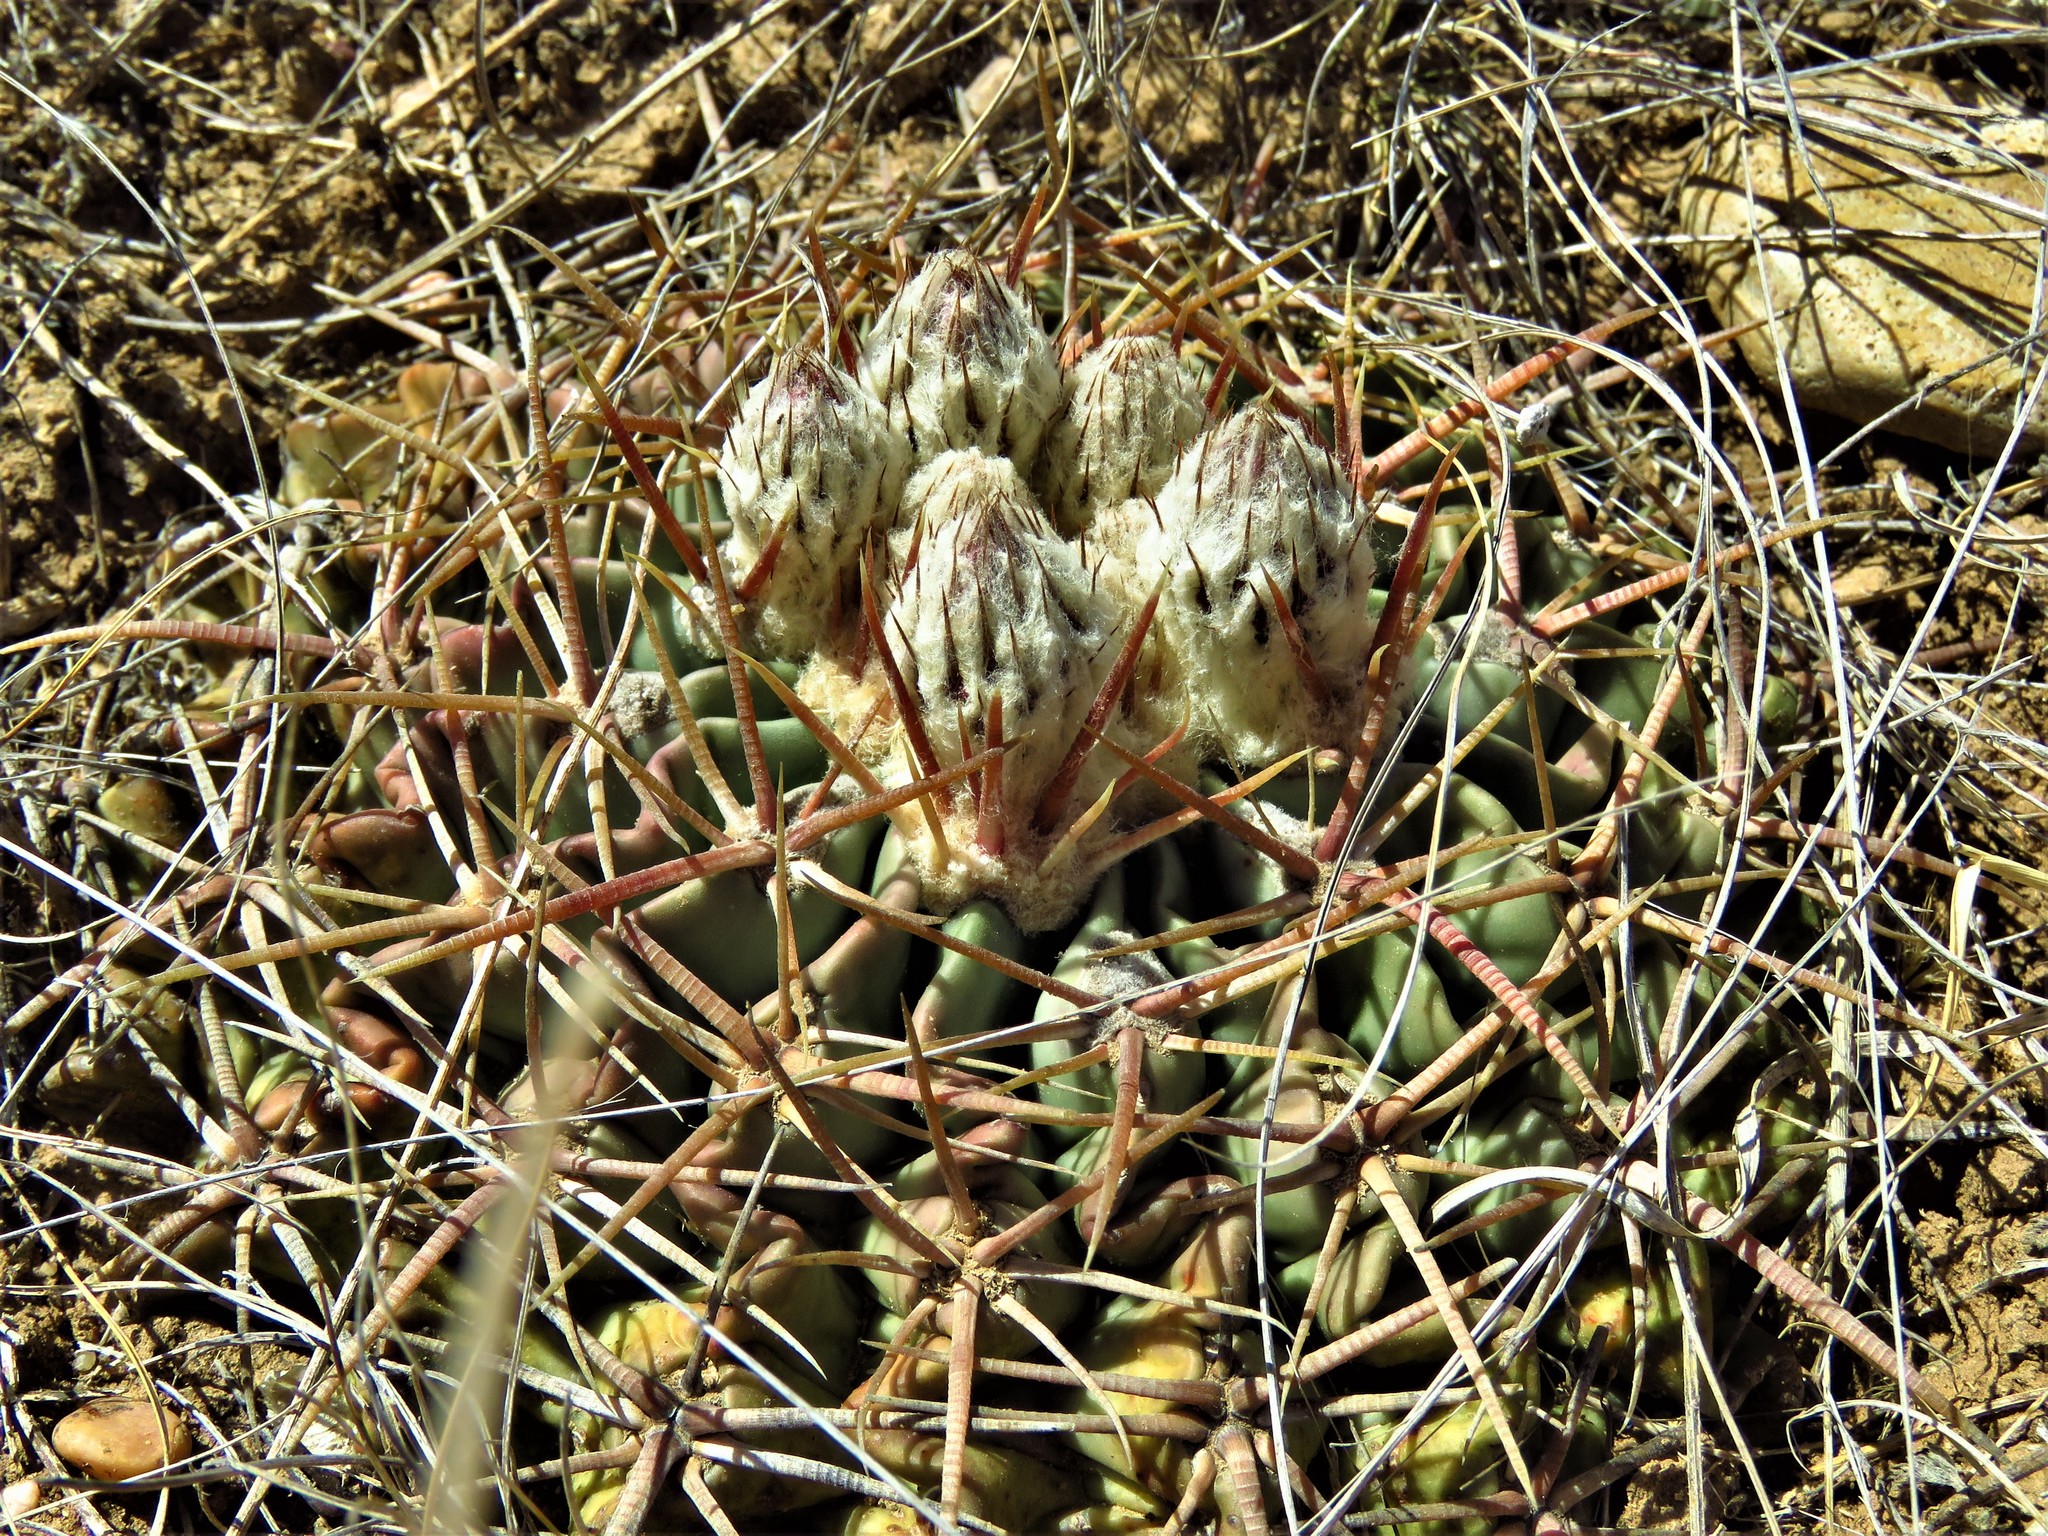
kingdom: Plantae
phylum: Tracheophyta
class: Magnoliopsida
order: Caryophyllales
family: Cactaceae
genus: Echinocactus
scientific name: Echinocactus texensis
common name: Devil's pincushion
